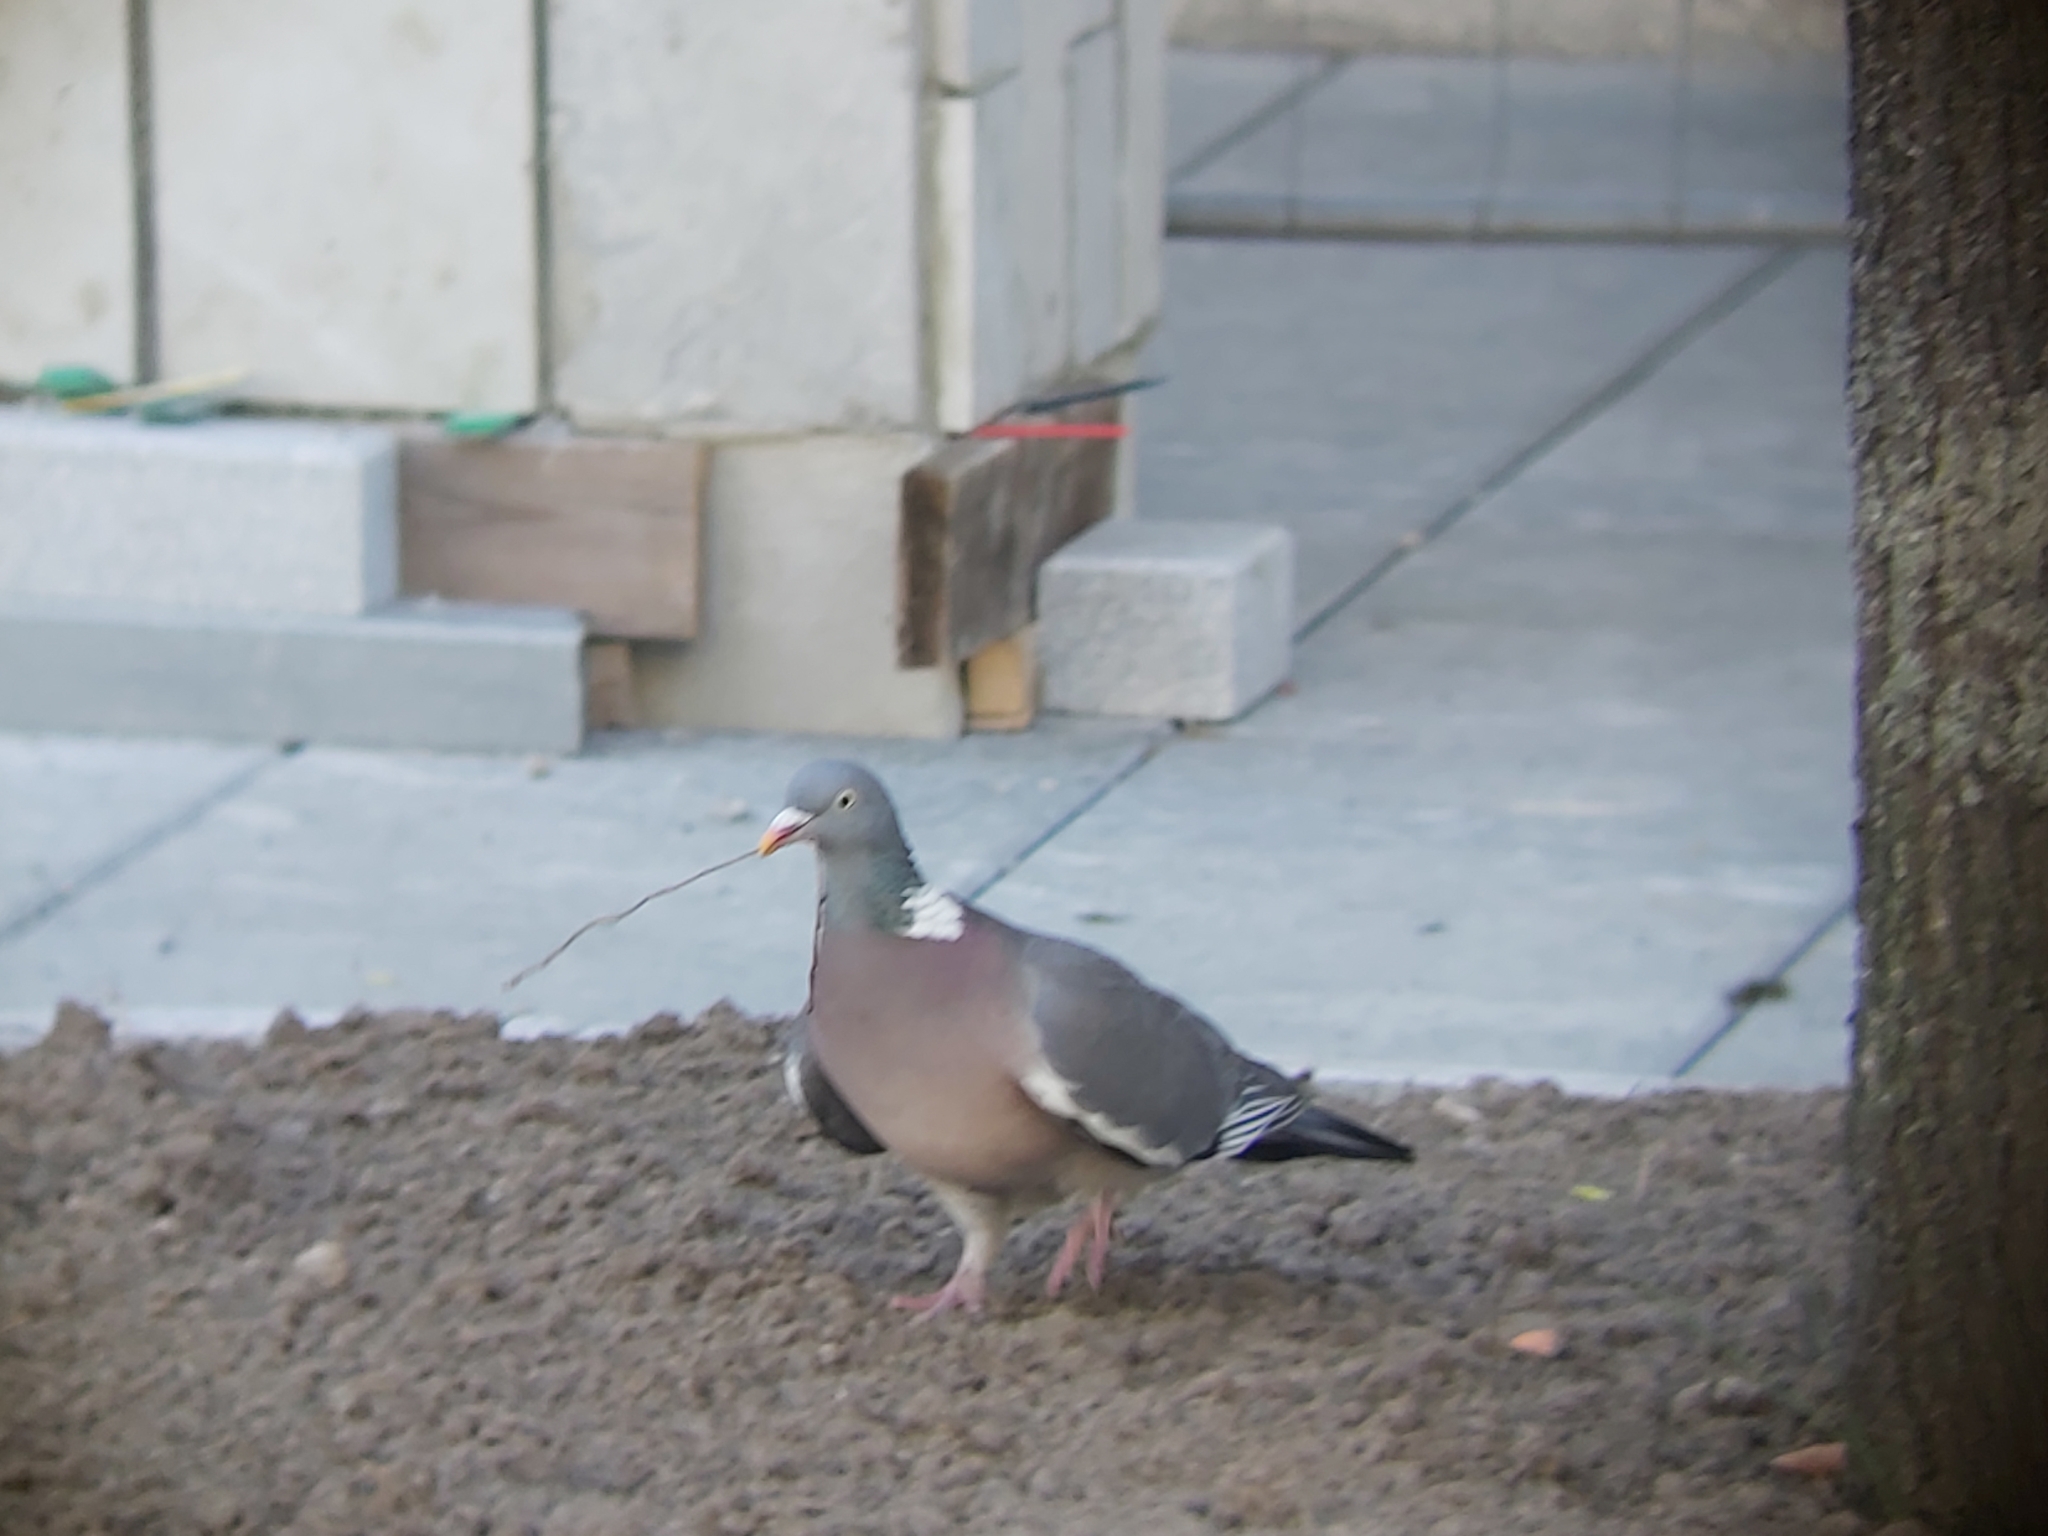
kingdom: Animalia
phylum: Chordata
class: Aves
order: Columbiformes
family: Columbidae
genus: Columba
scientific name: Columba palumbus
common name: Common wood pigeon
